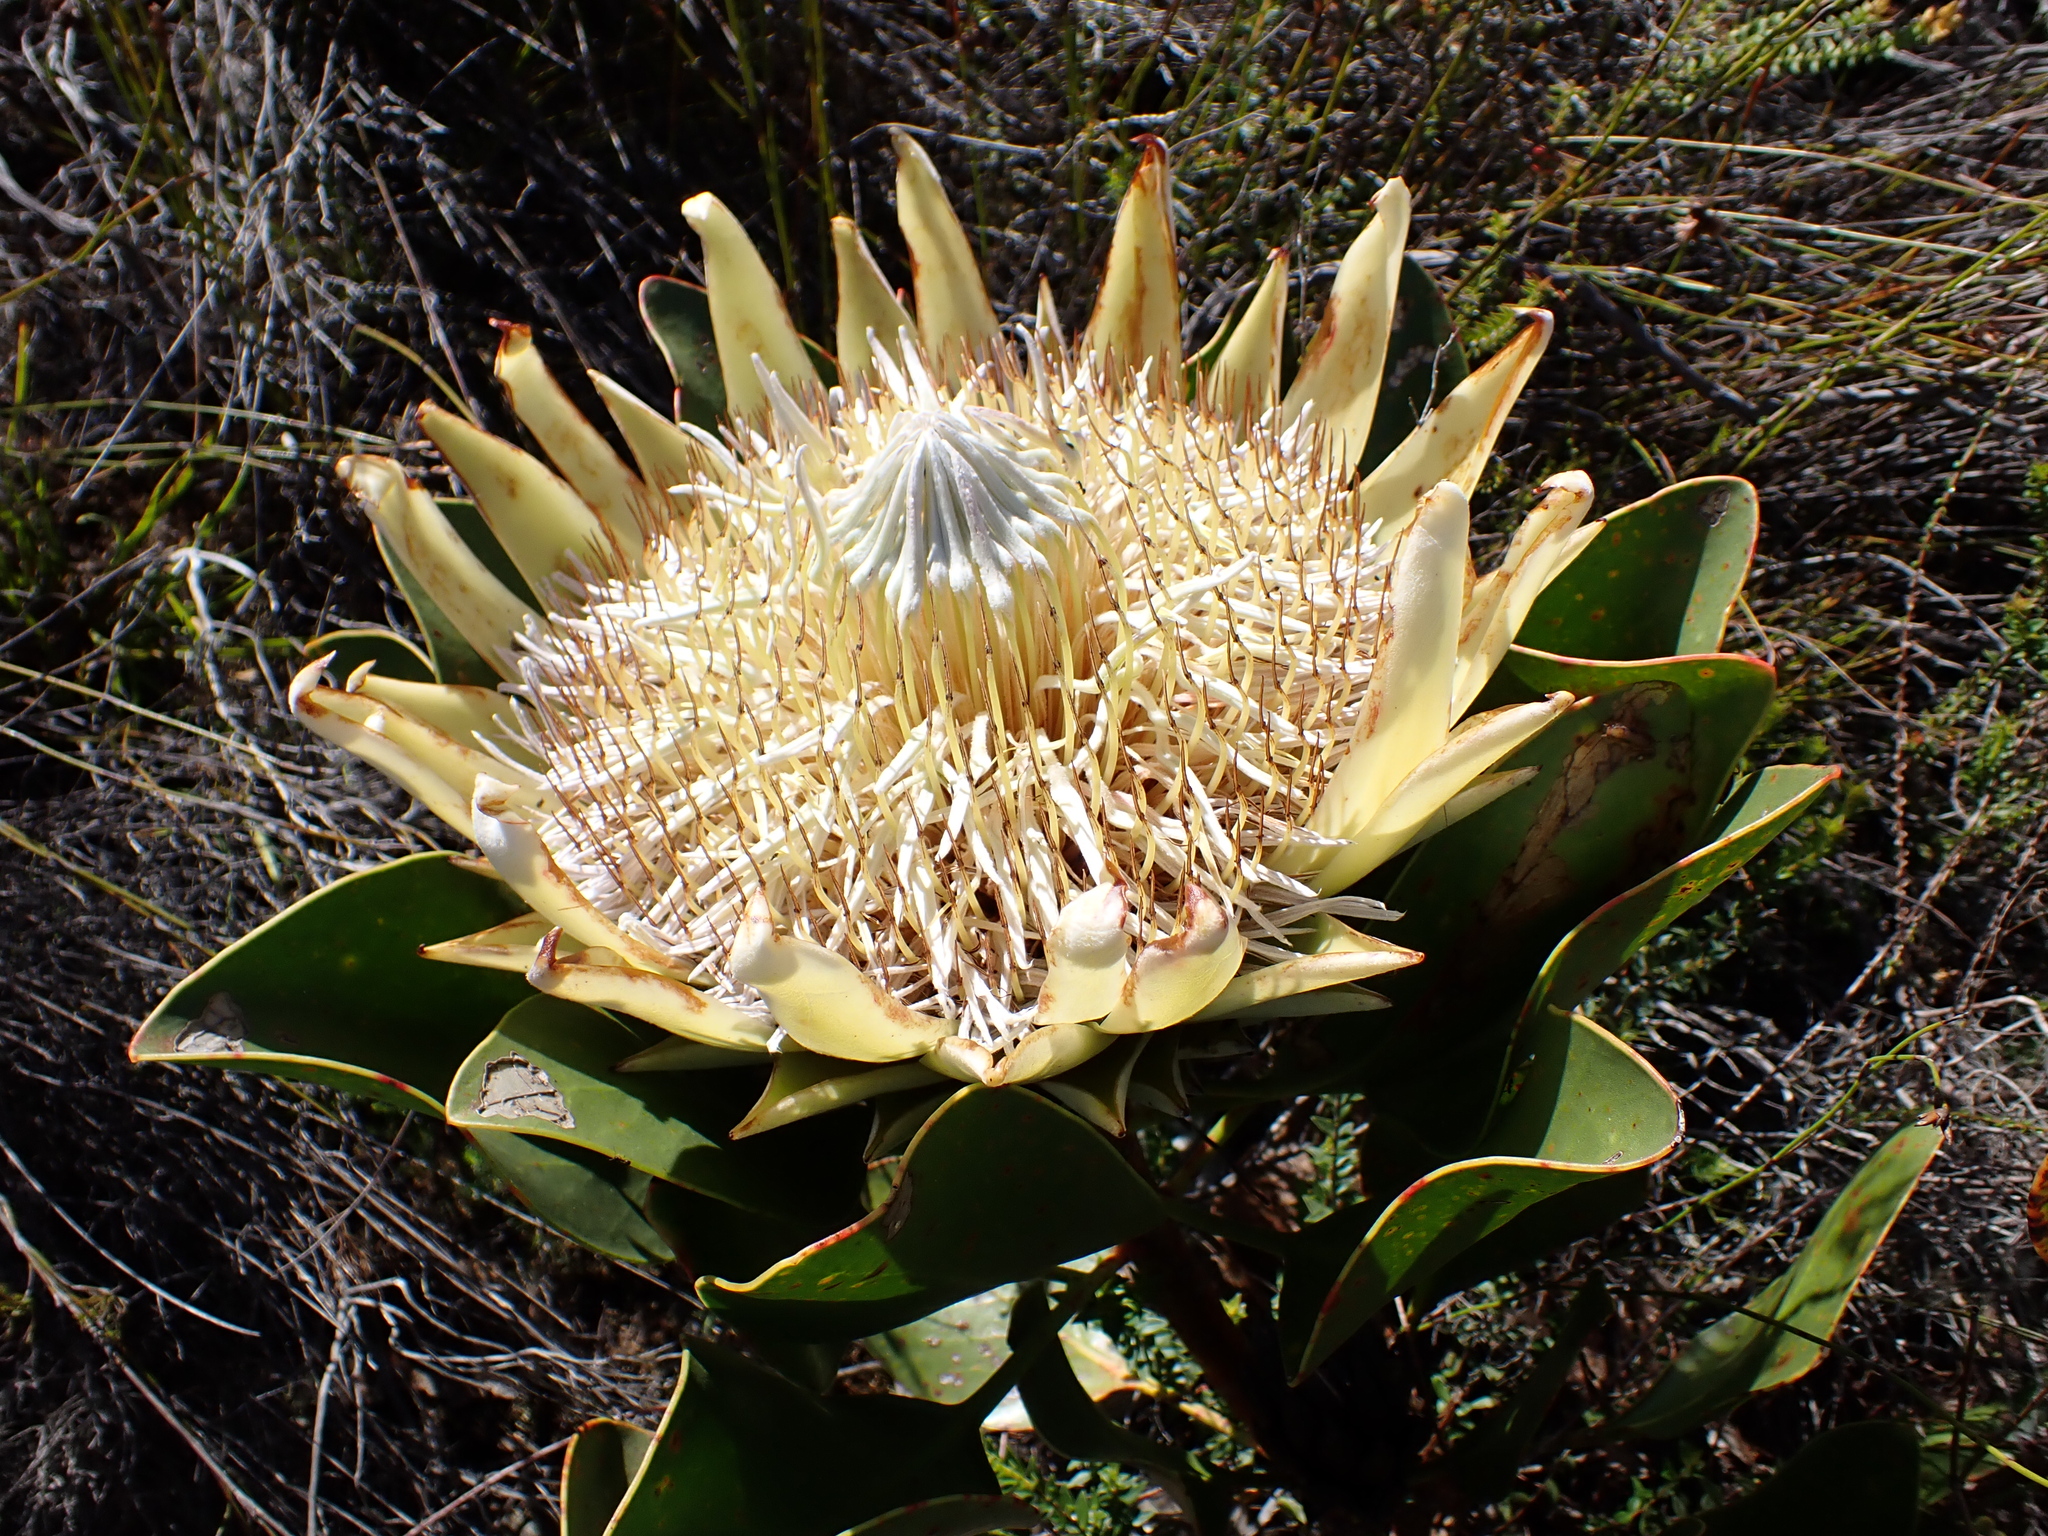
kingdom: Plantae
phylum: Tracheophyta
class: Magnoliopsida
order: Proteales
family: Proteaceae
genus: Protea
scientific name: Protea cynaroides
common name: King protea
